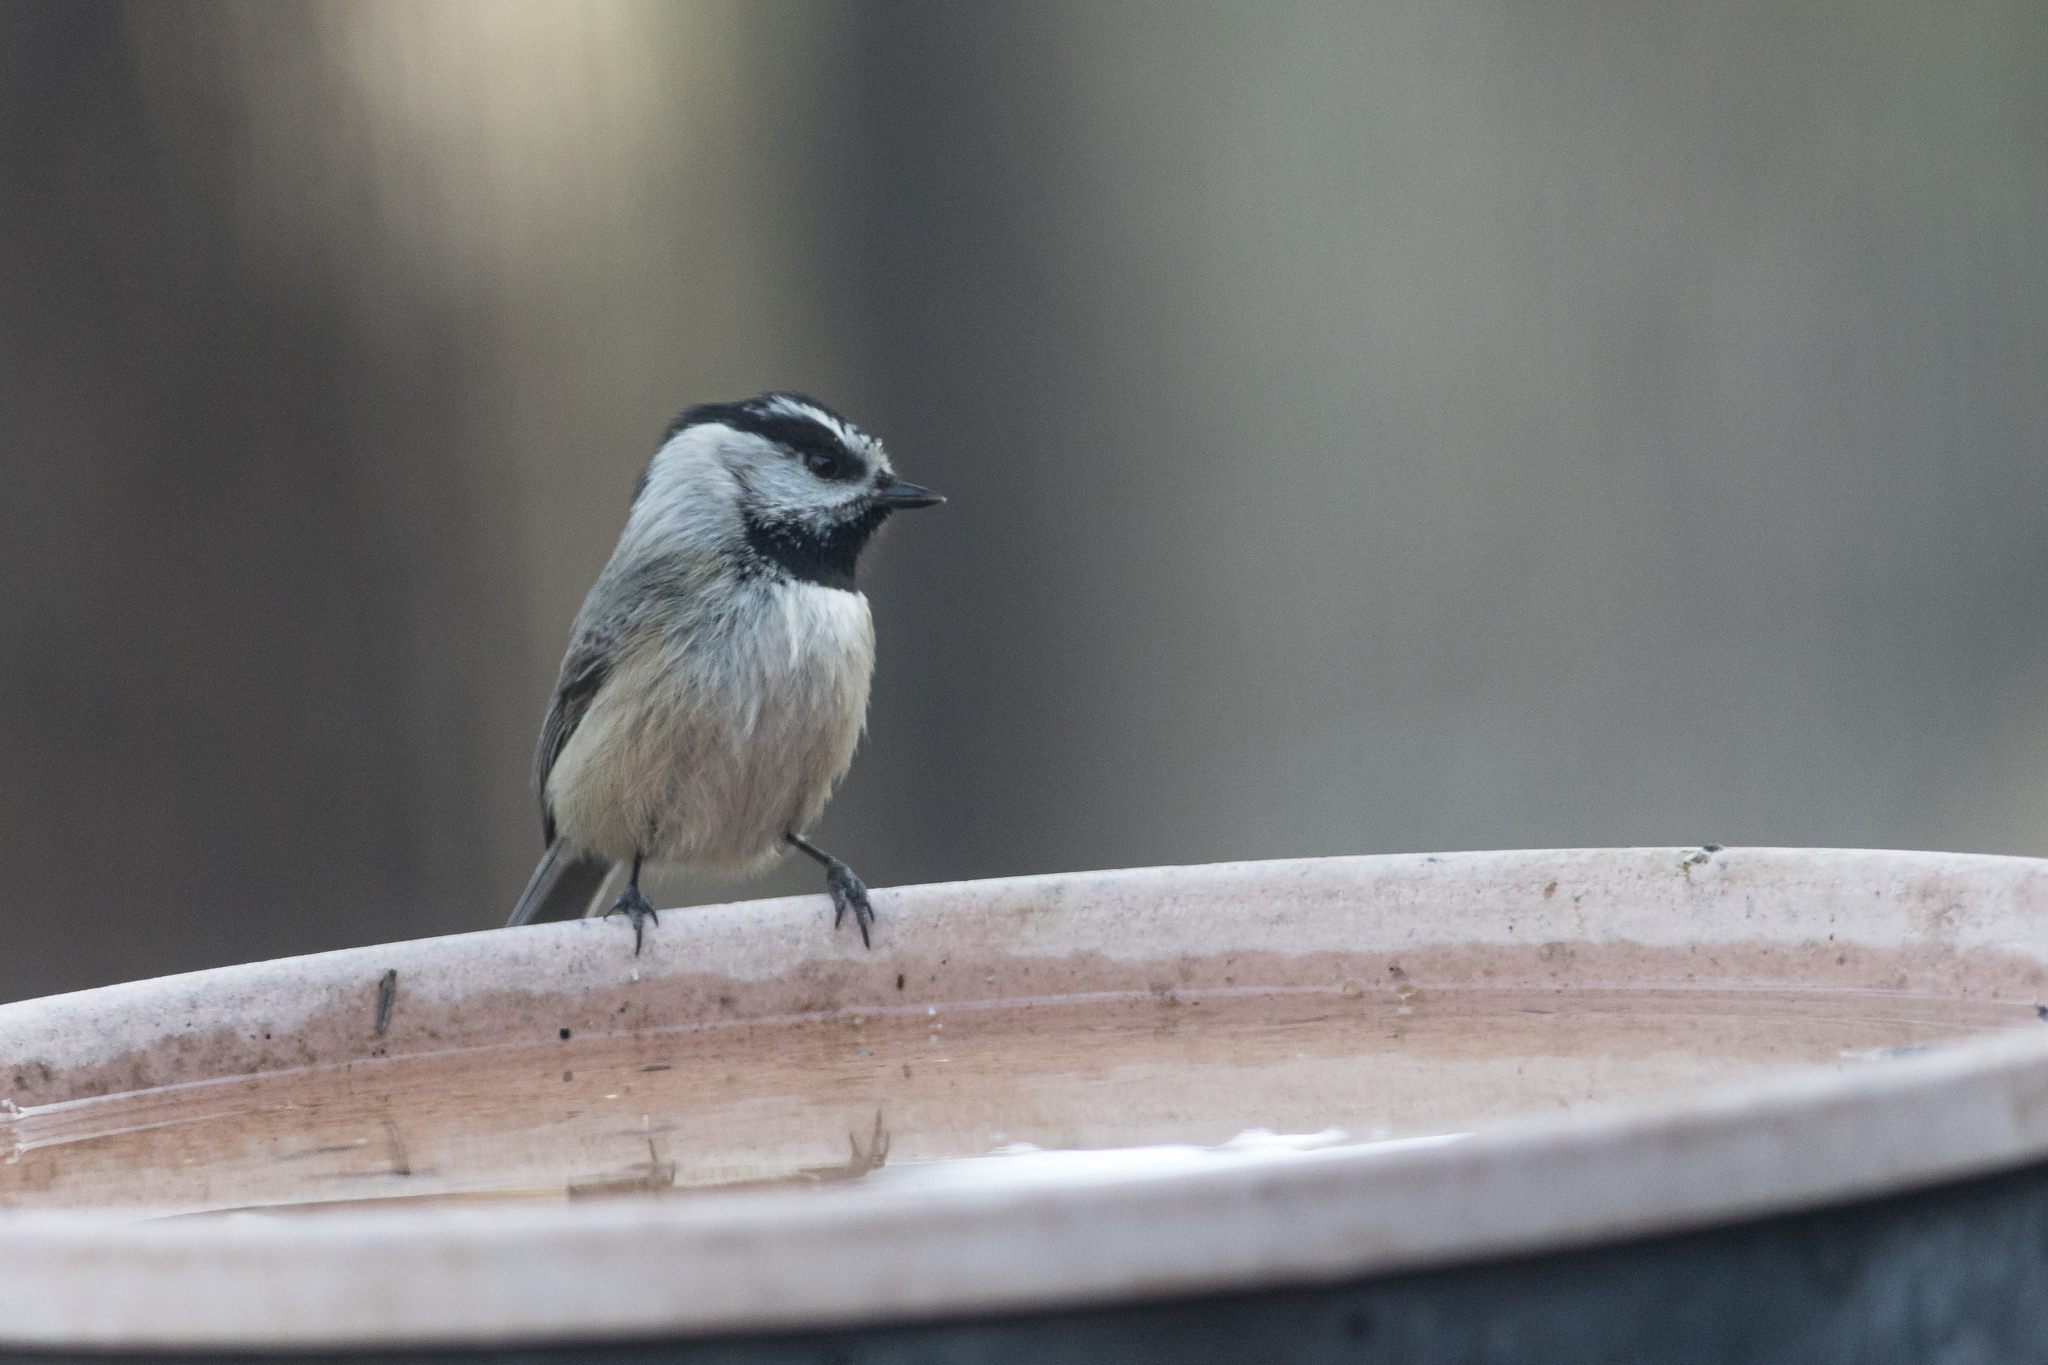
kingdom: Animalia
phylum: Chordata
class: Aves
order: Passeriformes
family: Paridae
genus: Poecile
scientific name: Poecile gambeli
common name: Mountain chickadee
